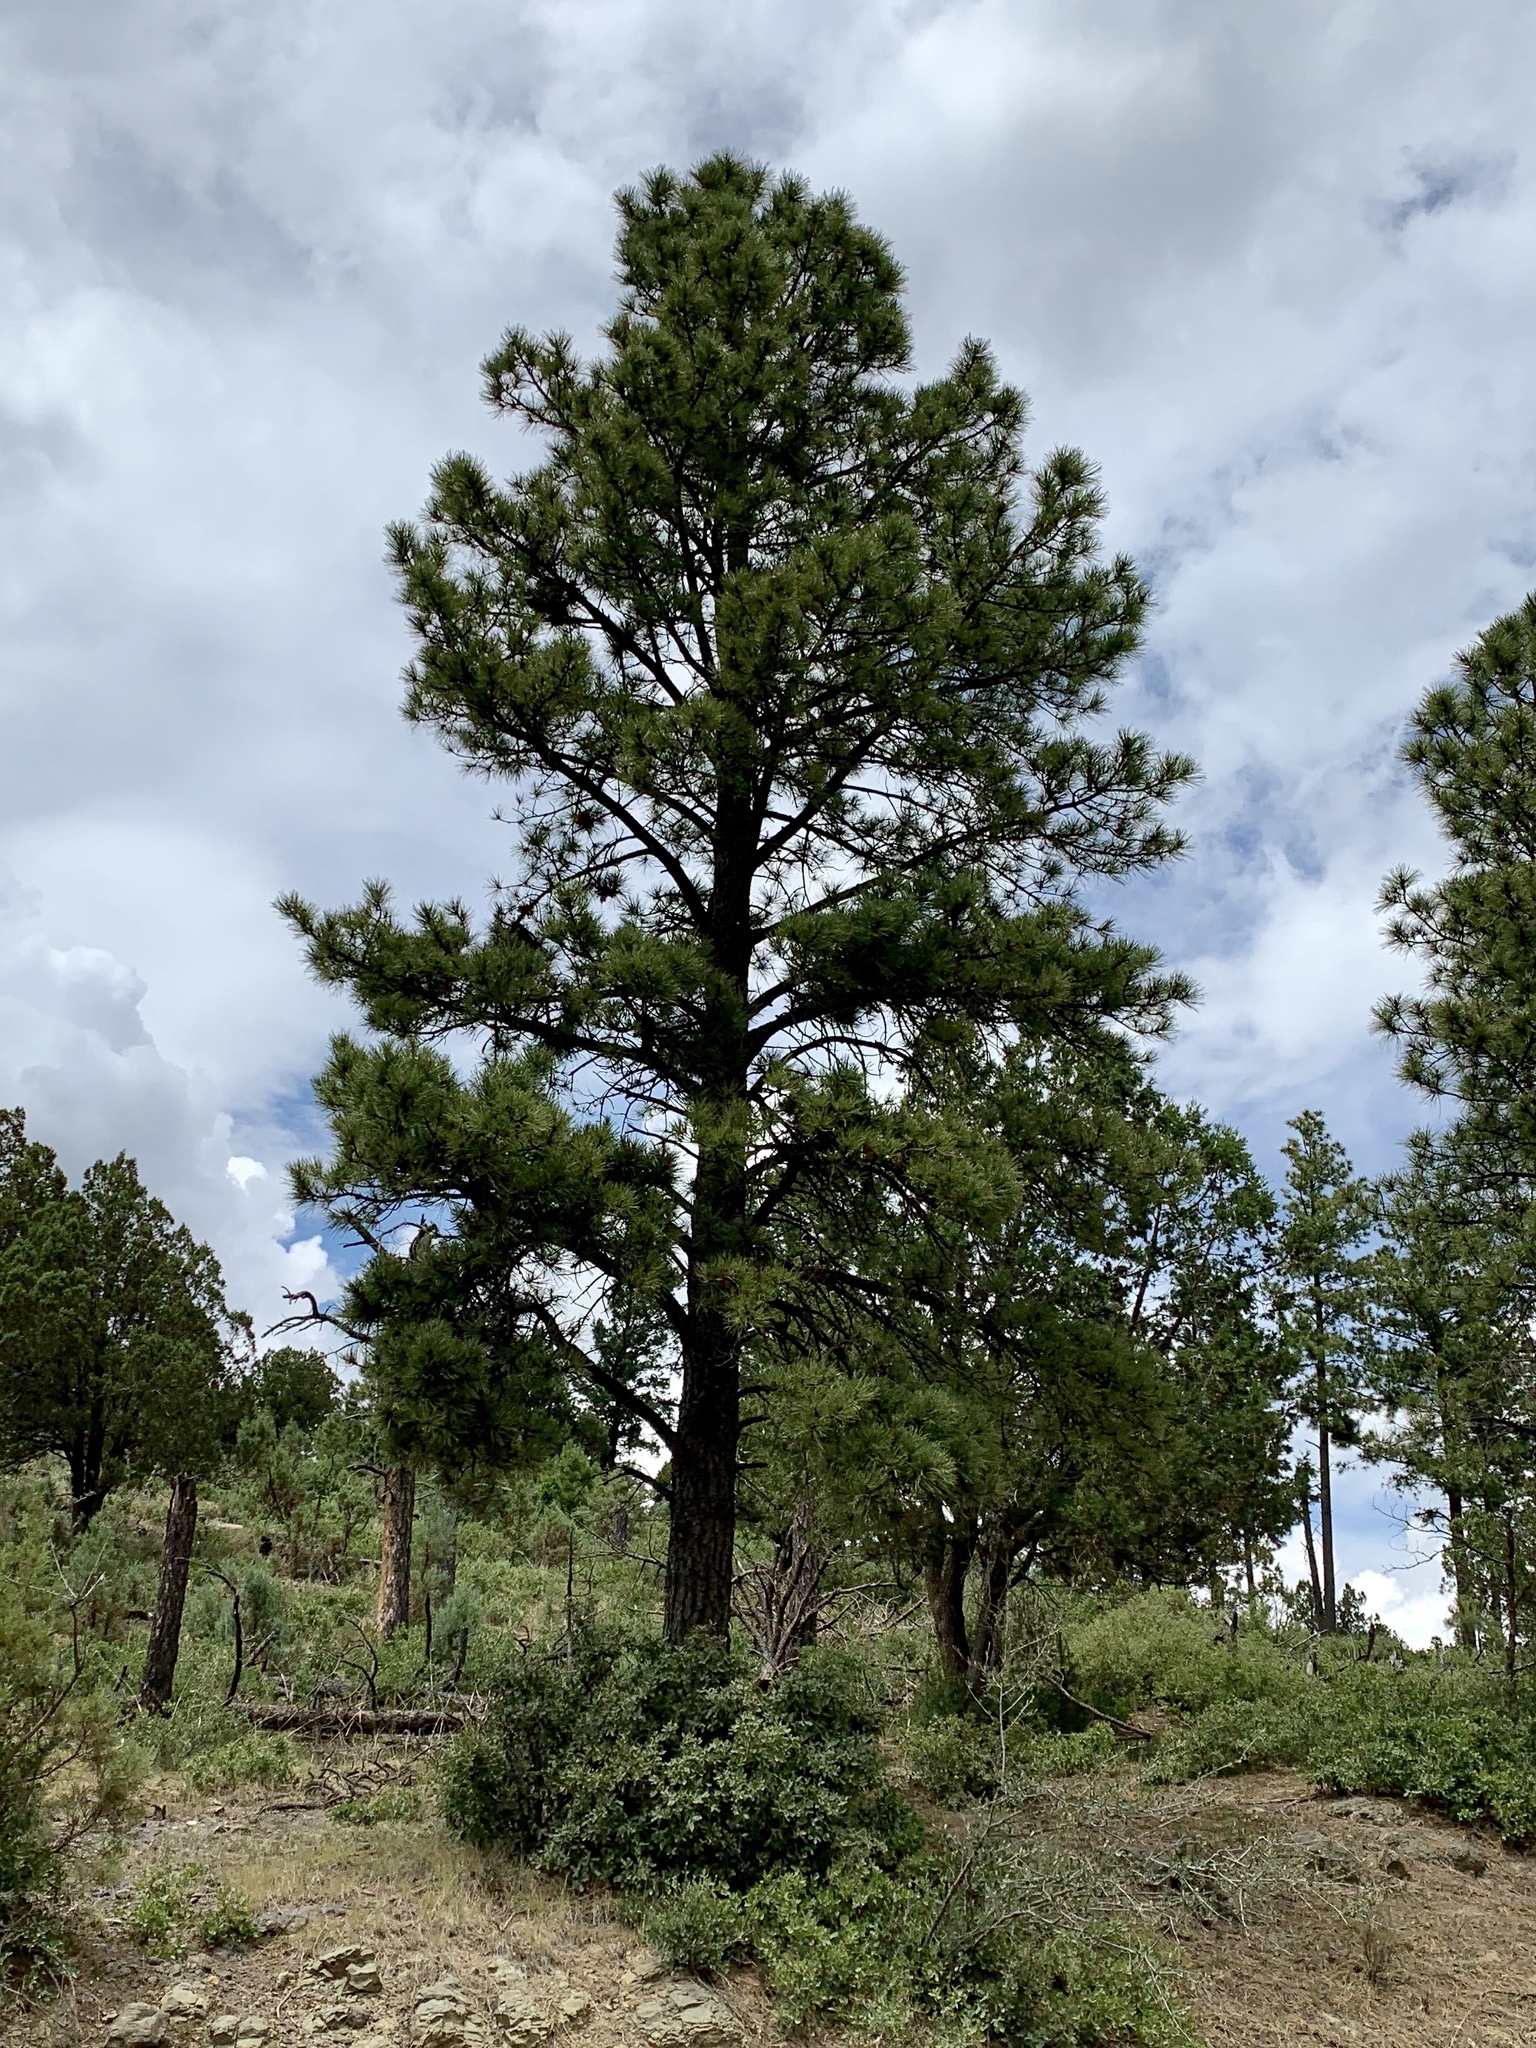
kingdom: Plantae
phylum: Tracheophyta
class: Pinopsida
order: Pinales
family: Pinaceae
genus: Pinus
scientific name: Pinus ponderosa
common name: Western yellow-pine
